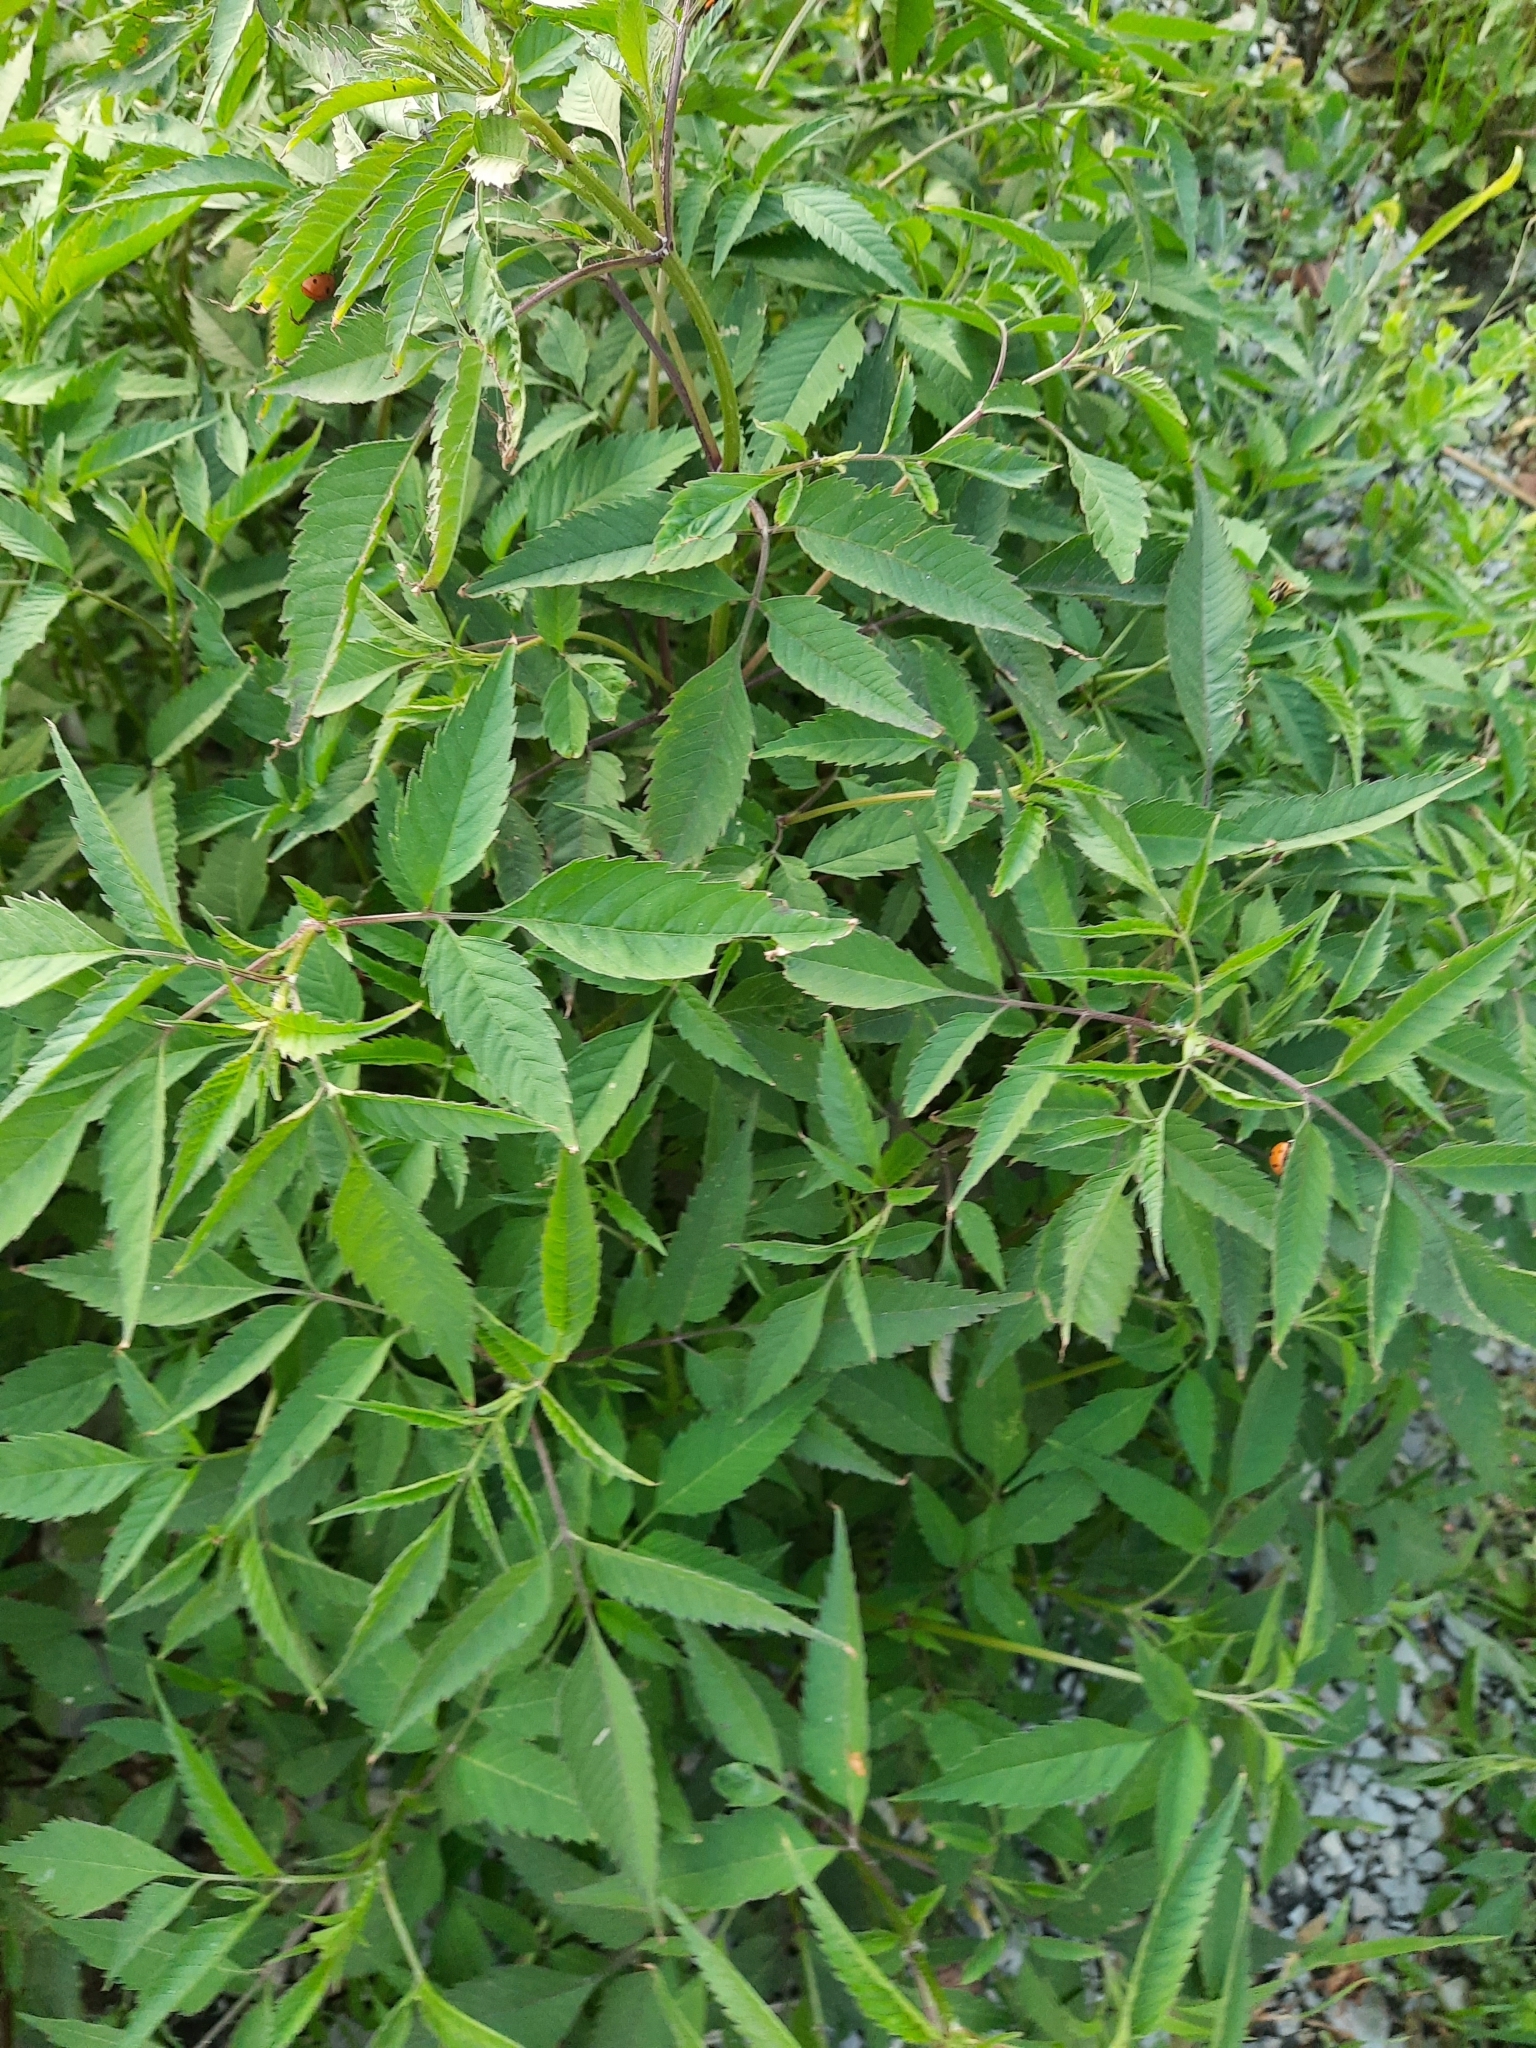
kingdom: Plantae
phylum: Tracheophyta
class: Magnoliopsida
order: Asterales
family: Asteraceae
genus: Bidens
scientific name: Bidens frondosa
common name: Beggarticks
